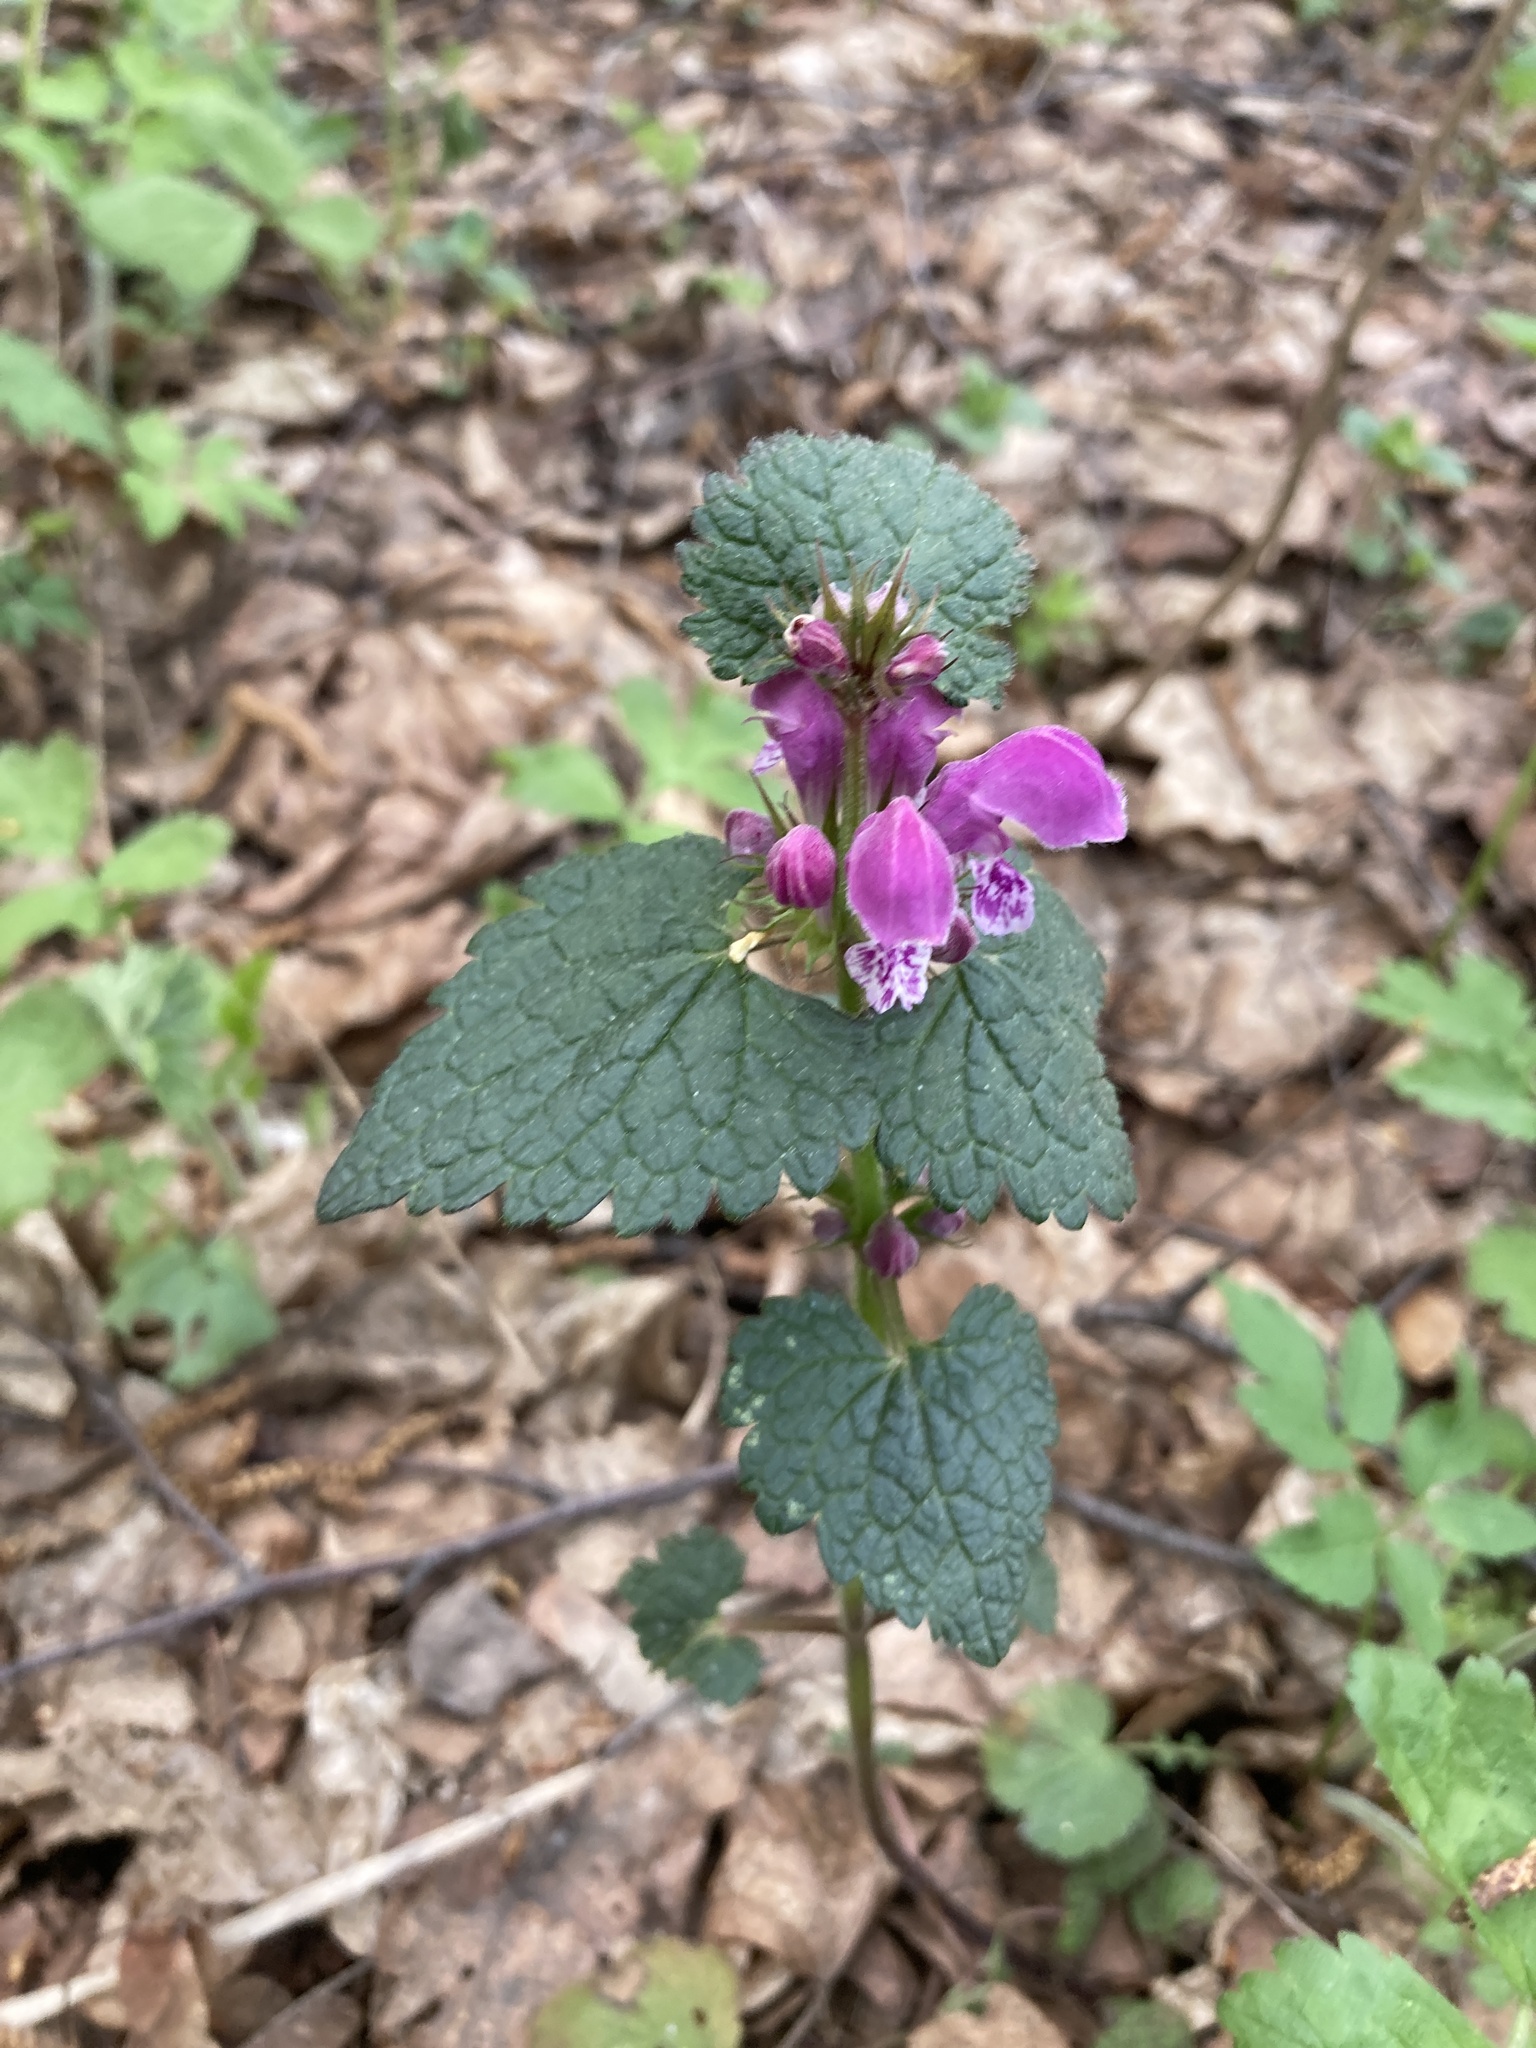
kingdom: Plantae
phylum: Tracheophyta
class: Magnoliopsida
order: Lamiales
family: Lamiaceae
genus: Lamium
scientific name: Lamium maculatum
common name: Spotted dead-nettle
